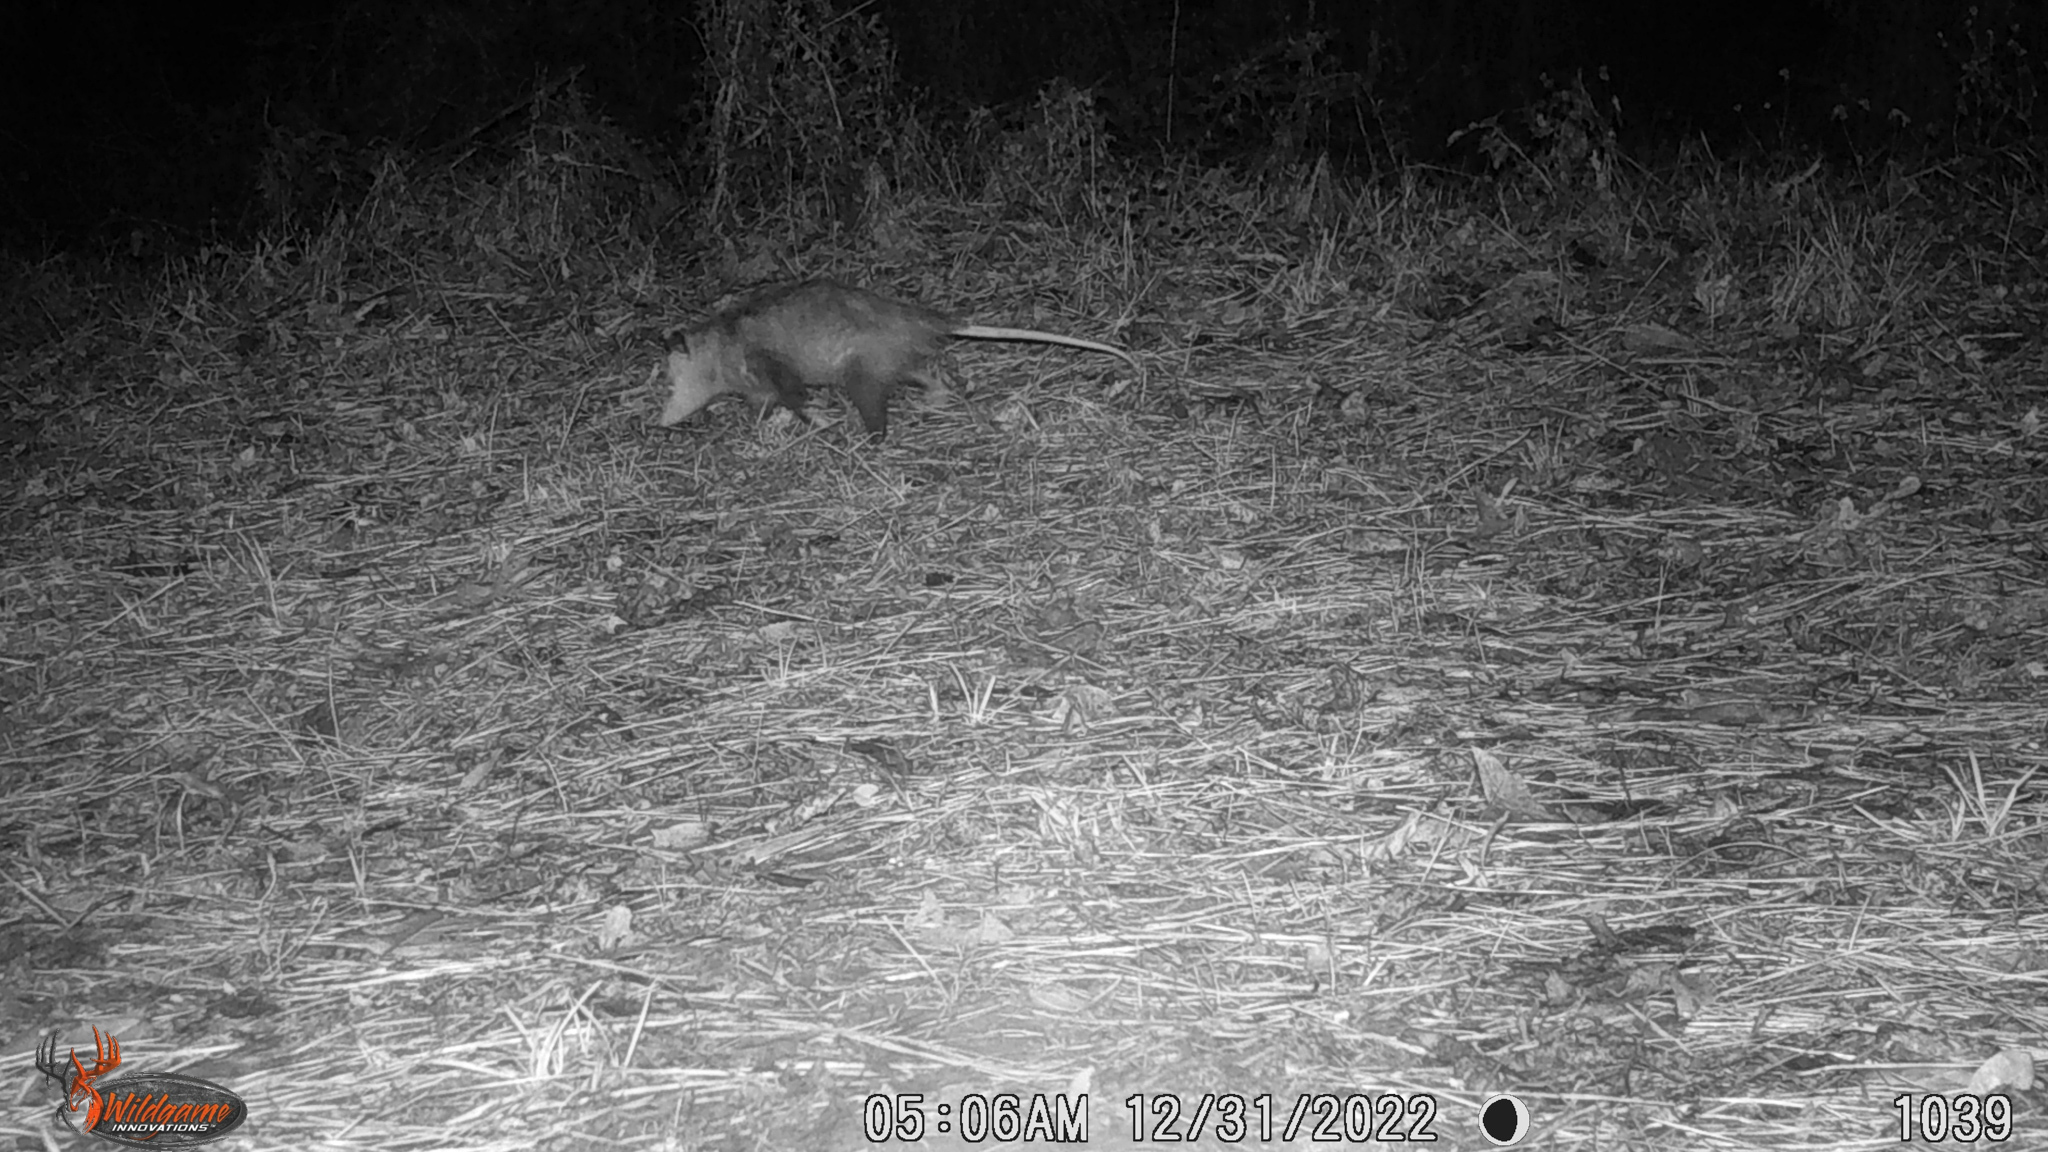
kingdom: Animalia
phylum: Chordata
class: Mammalia
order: Didelphimorphia
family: Didelphidae
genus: Didelphis
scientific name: Didelphis virginiana
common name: Virginia opossum
